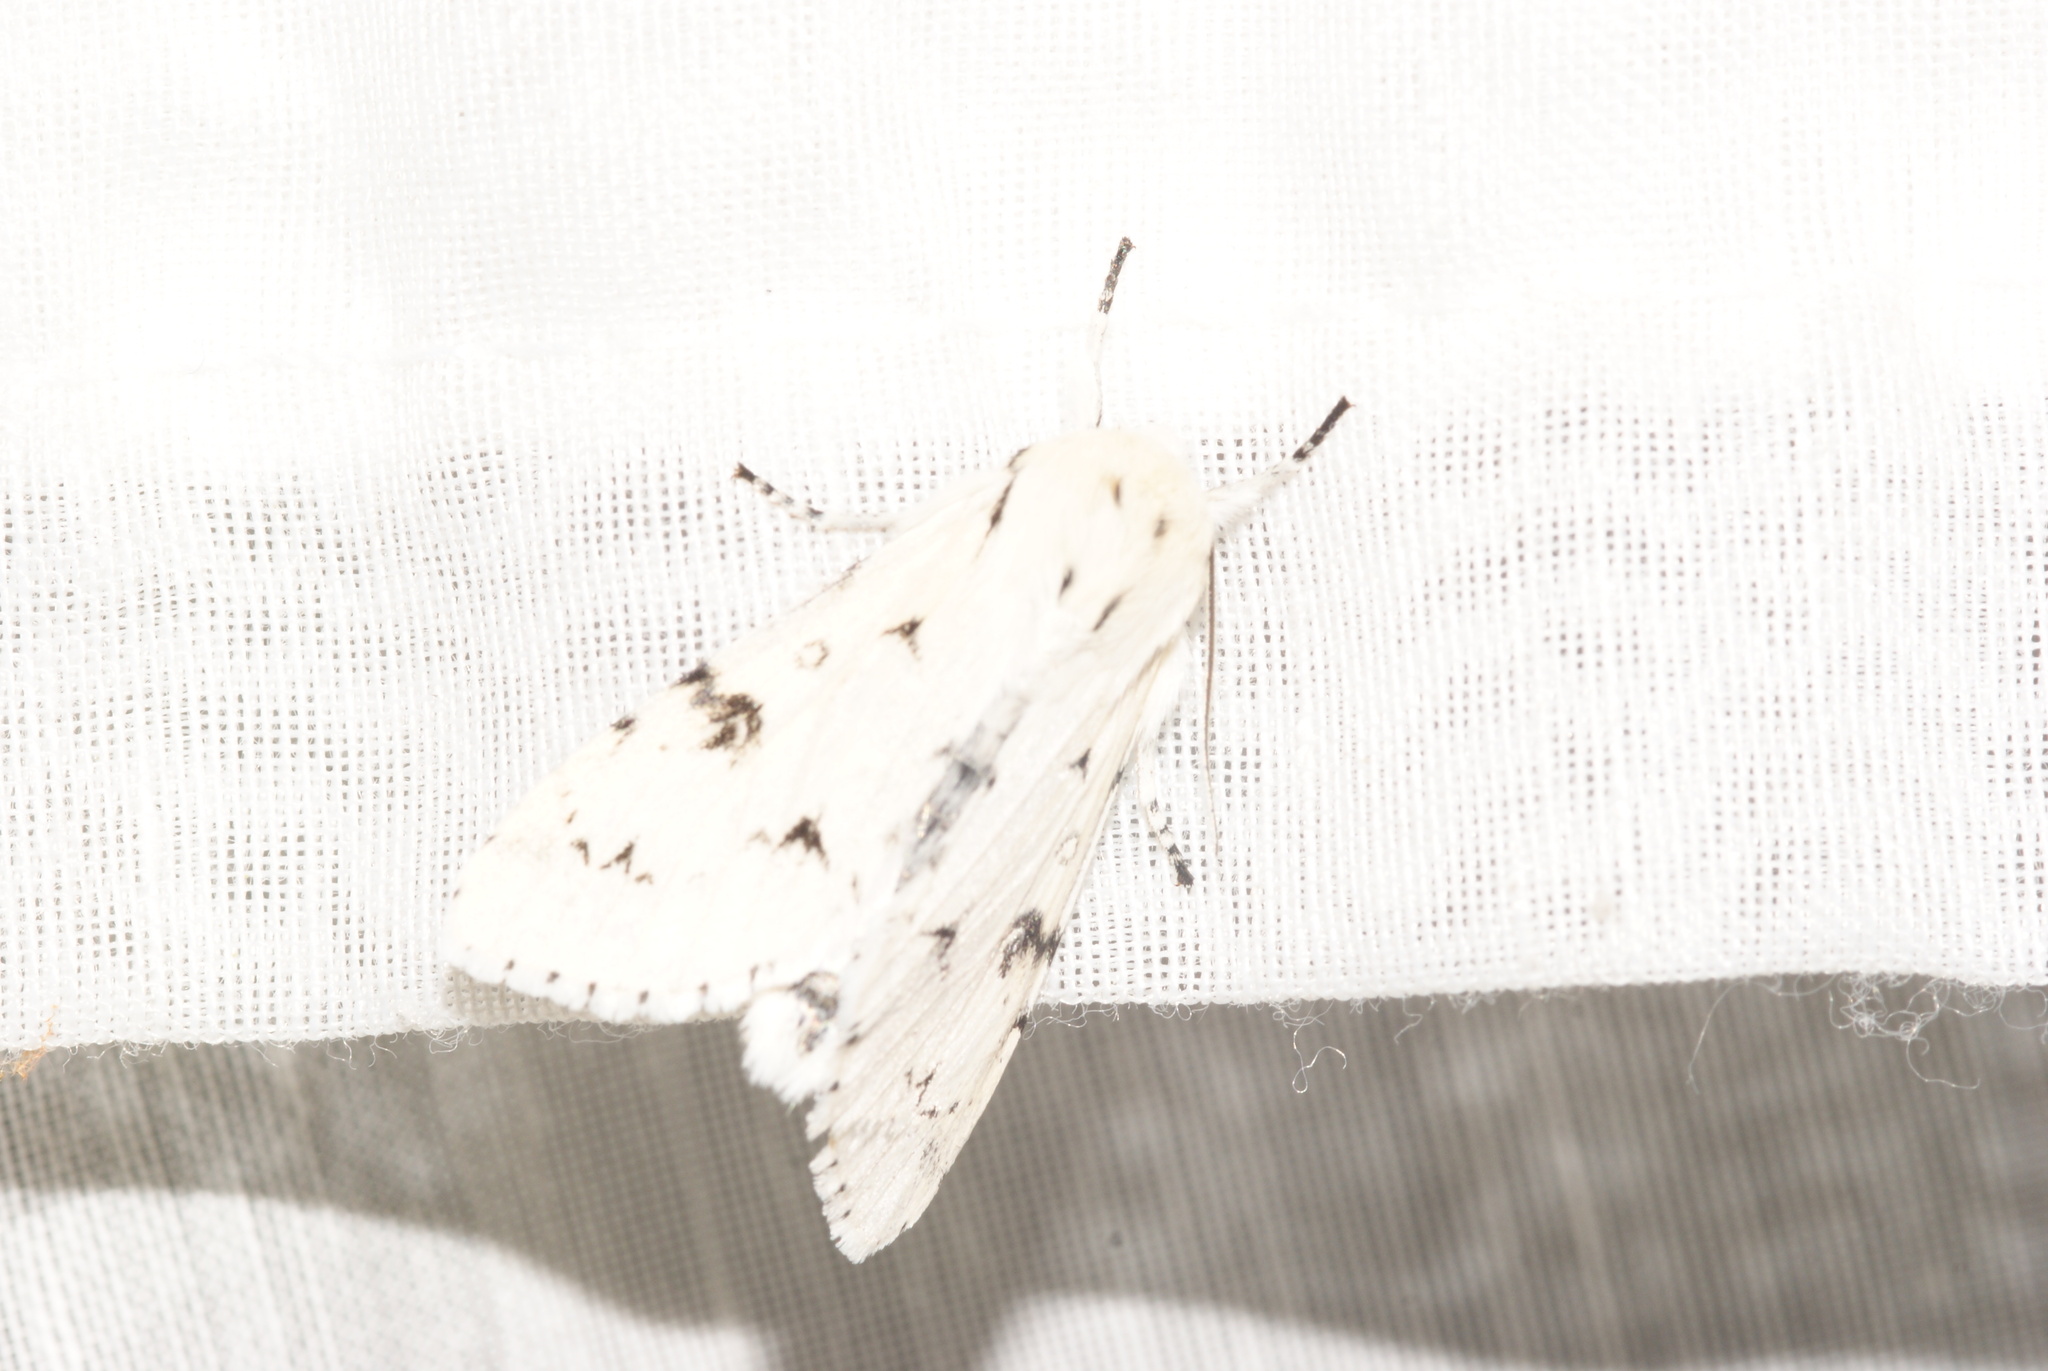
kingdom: Animalia
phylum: Arthropoda
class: Insecta
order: Lepidoptera
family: Noctuidae
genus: Acronicta
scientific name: Acronicta leporina
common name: Miller
